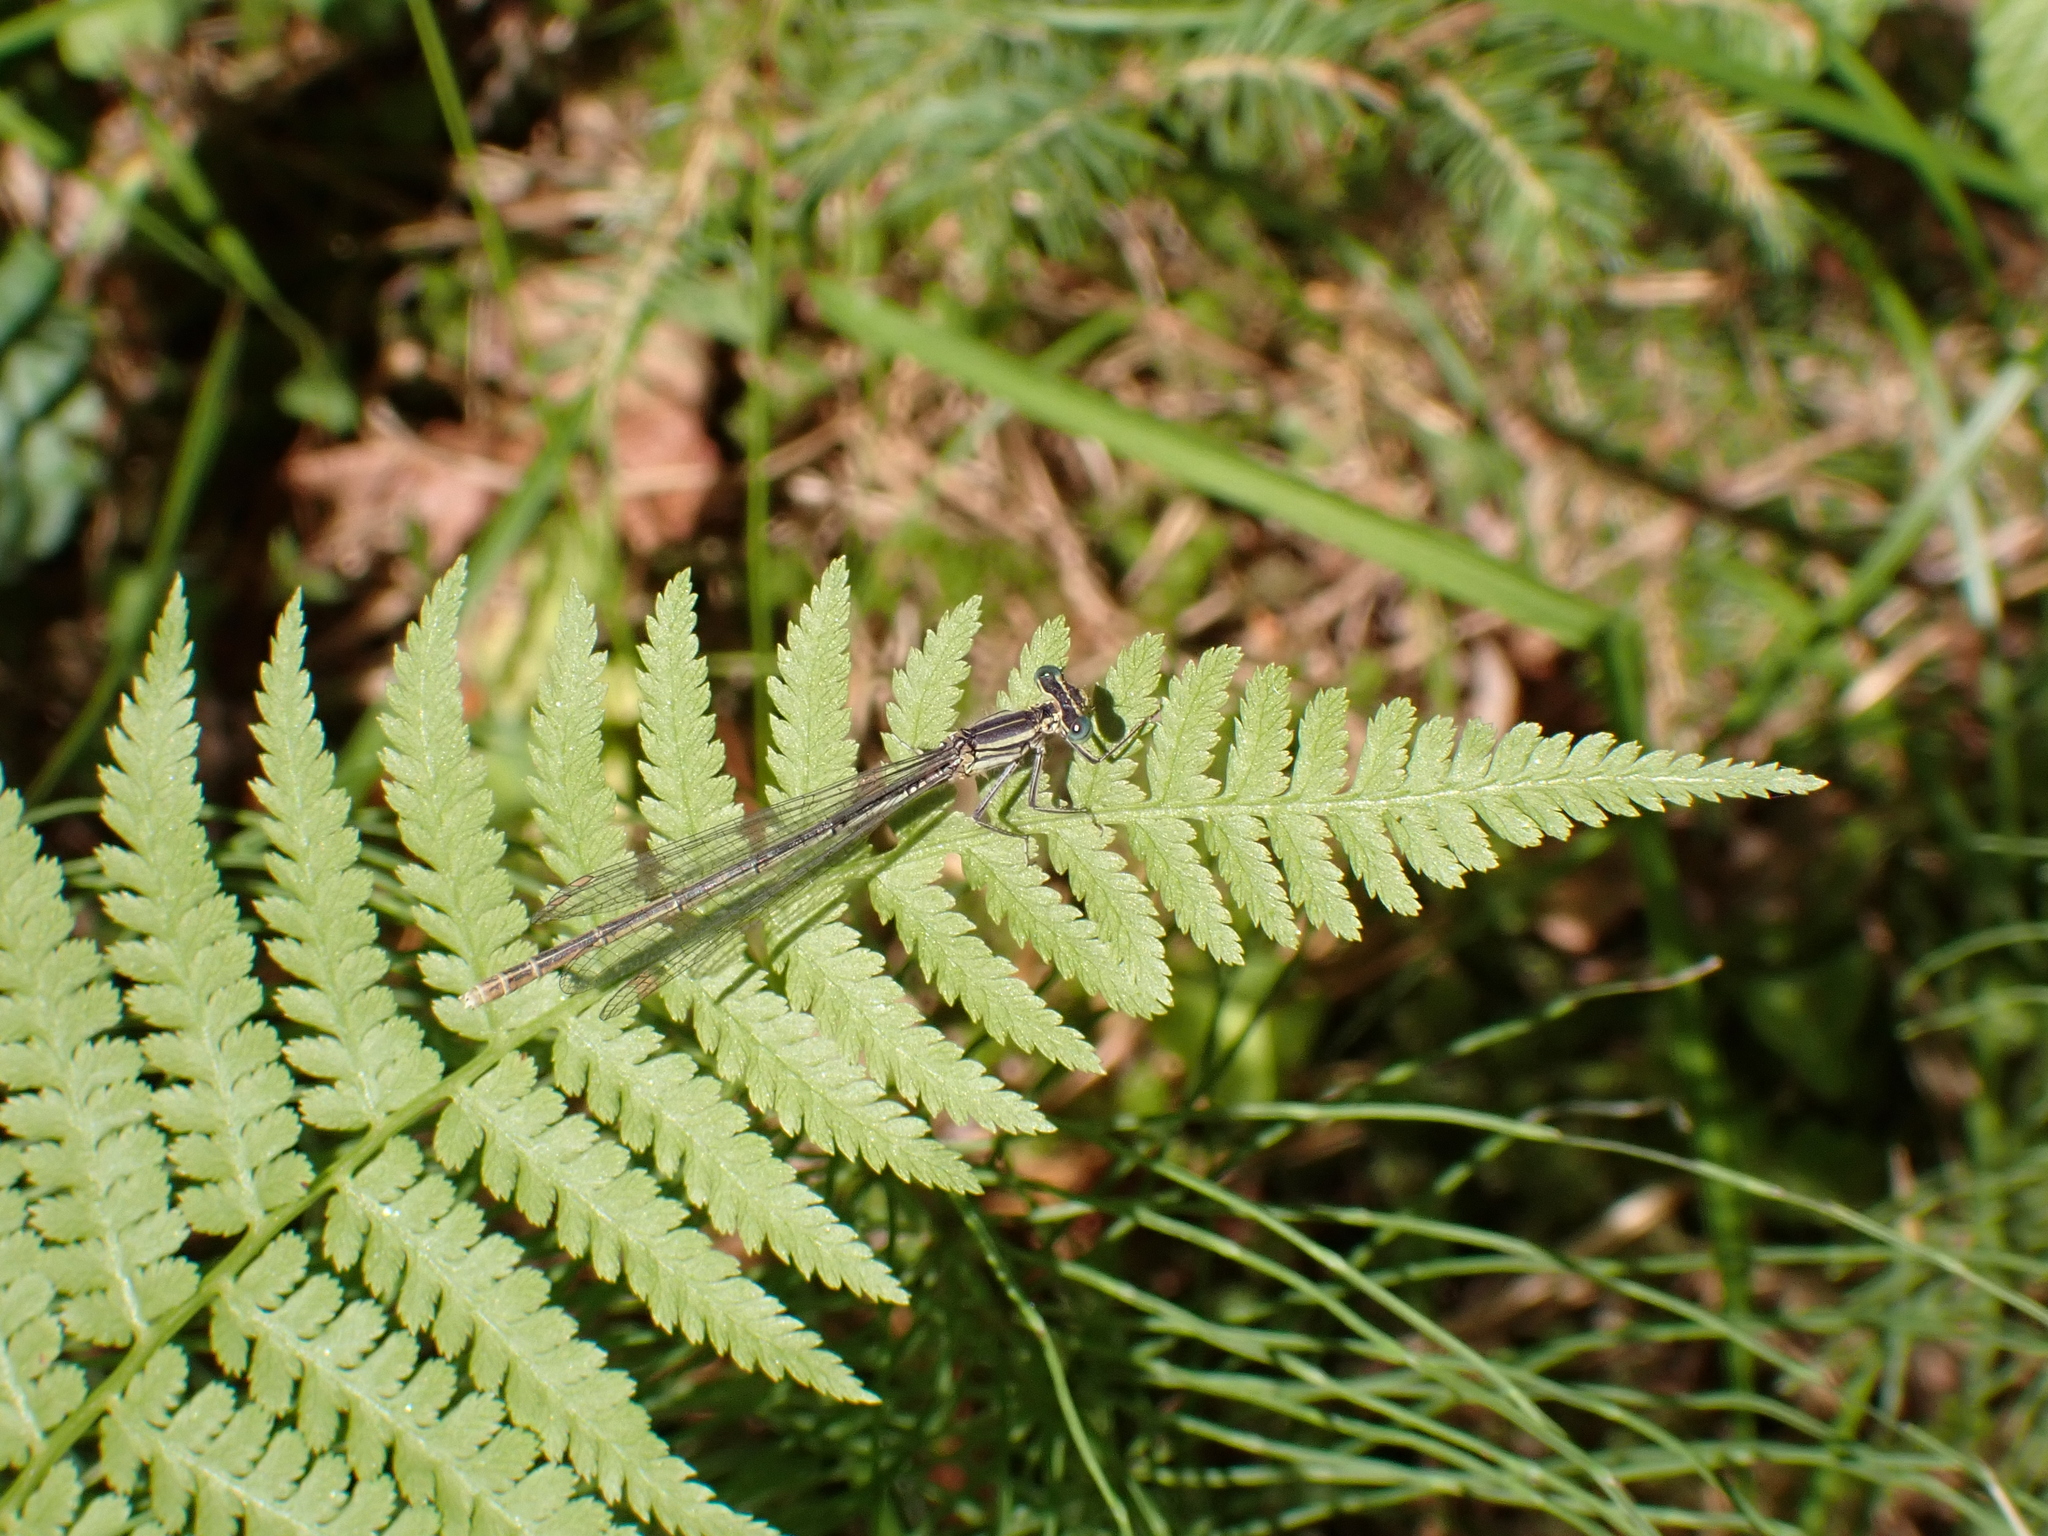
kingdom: Animalia
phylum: Arthropoda
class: Insecta
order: Odonata
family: Platycnemididae
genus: Platycnemis
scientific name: Platycnemis pennipes
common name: White-legged damselfly
